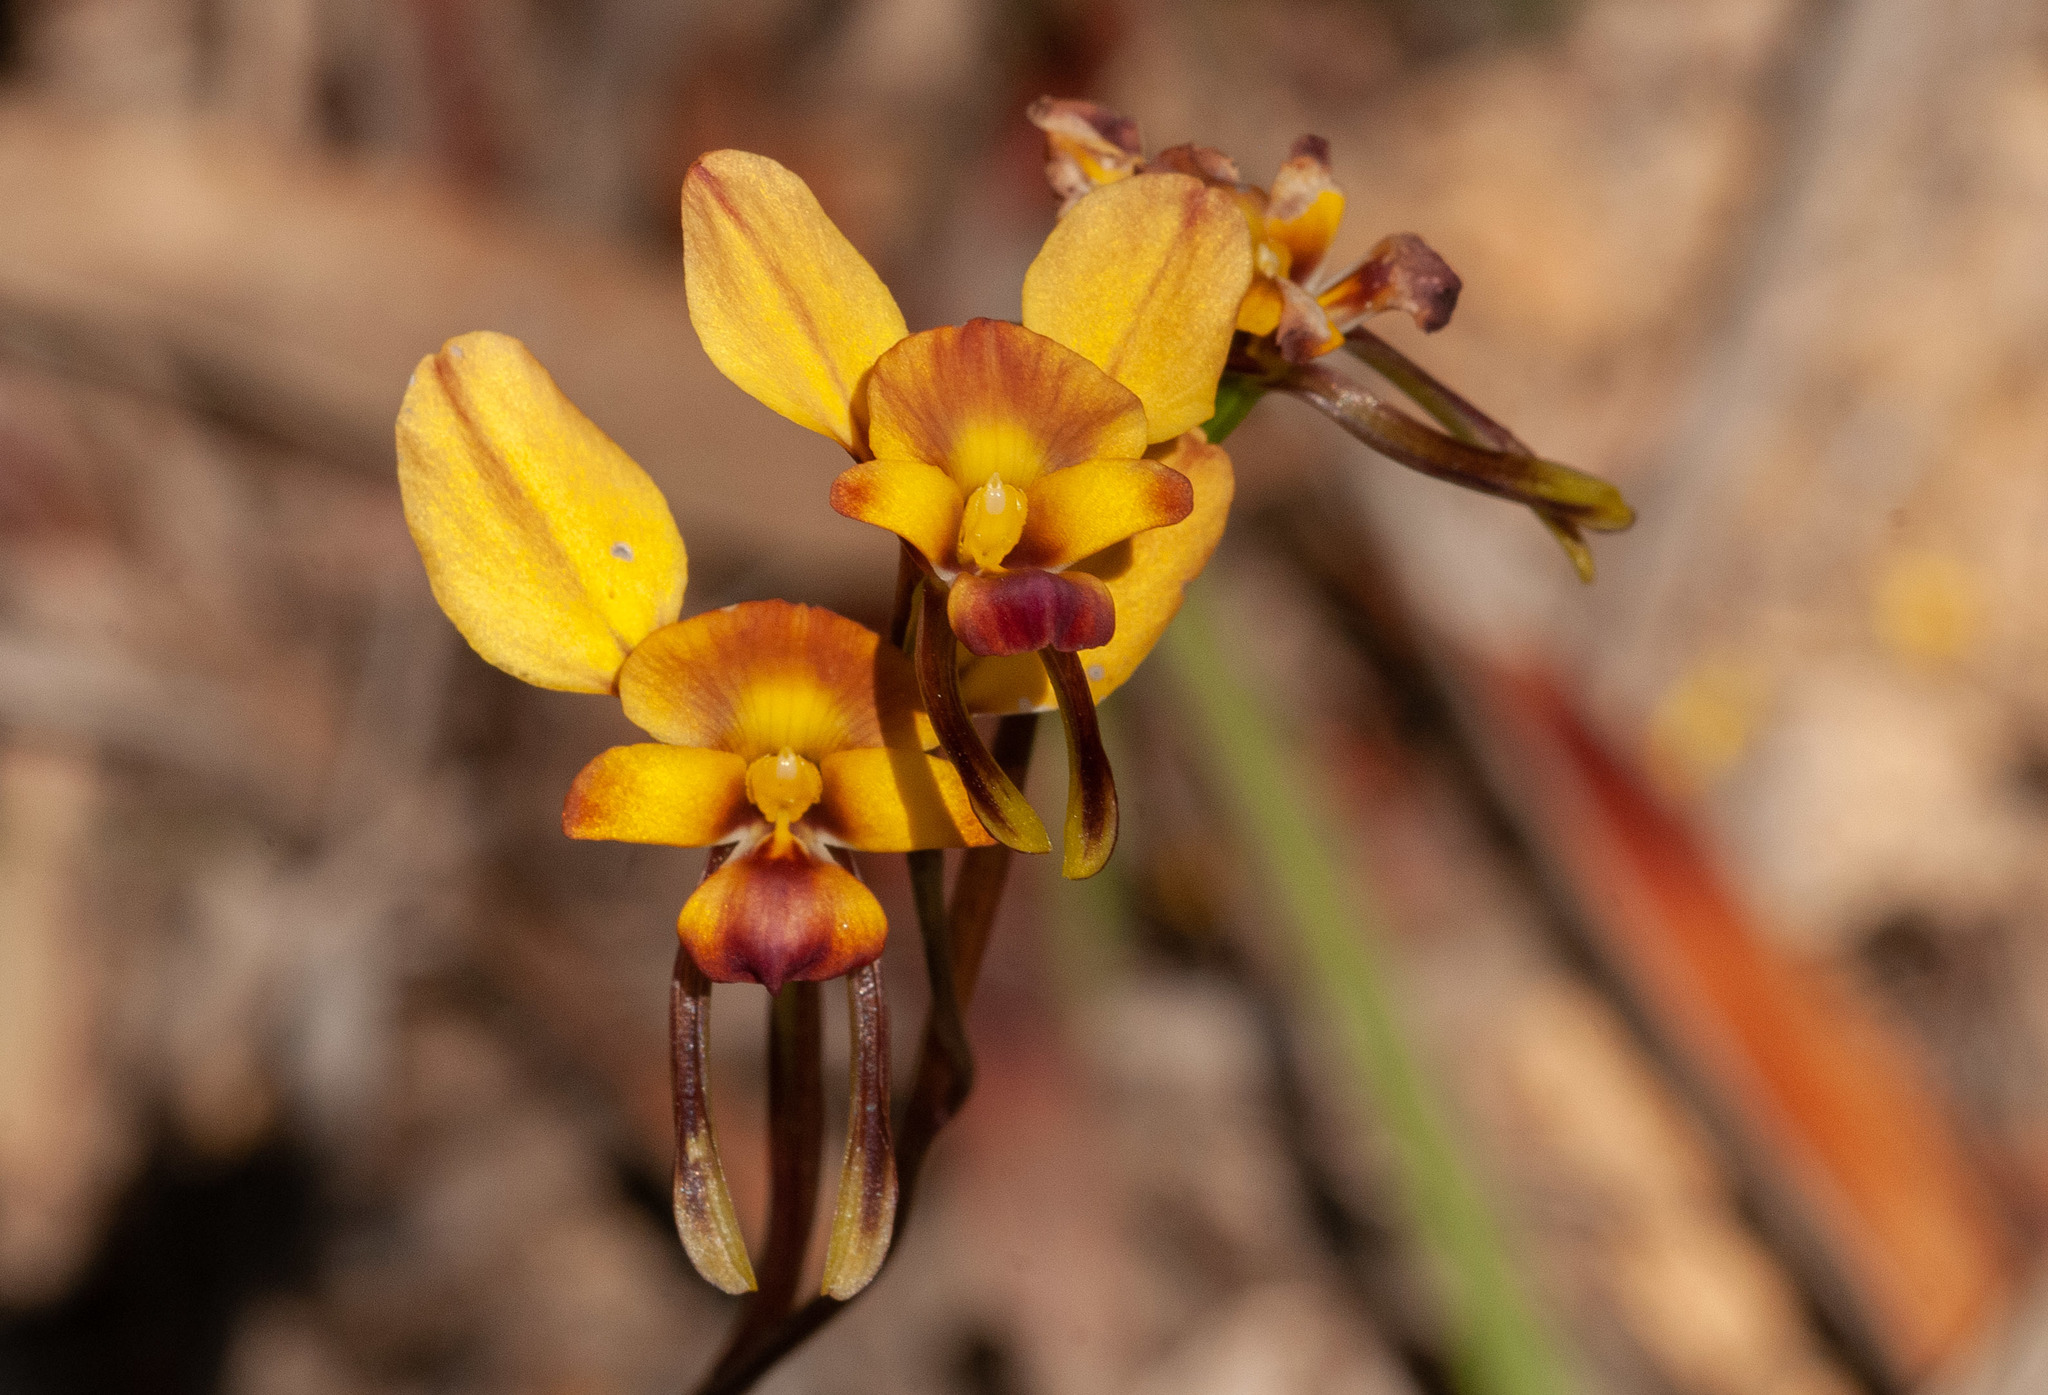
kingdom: Plantae
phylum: Tracheophyta
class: Liliopsida
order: Asparagales
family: Orchidaceae
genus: Diuris
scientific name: Diuris orientis
